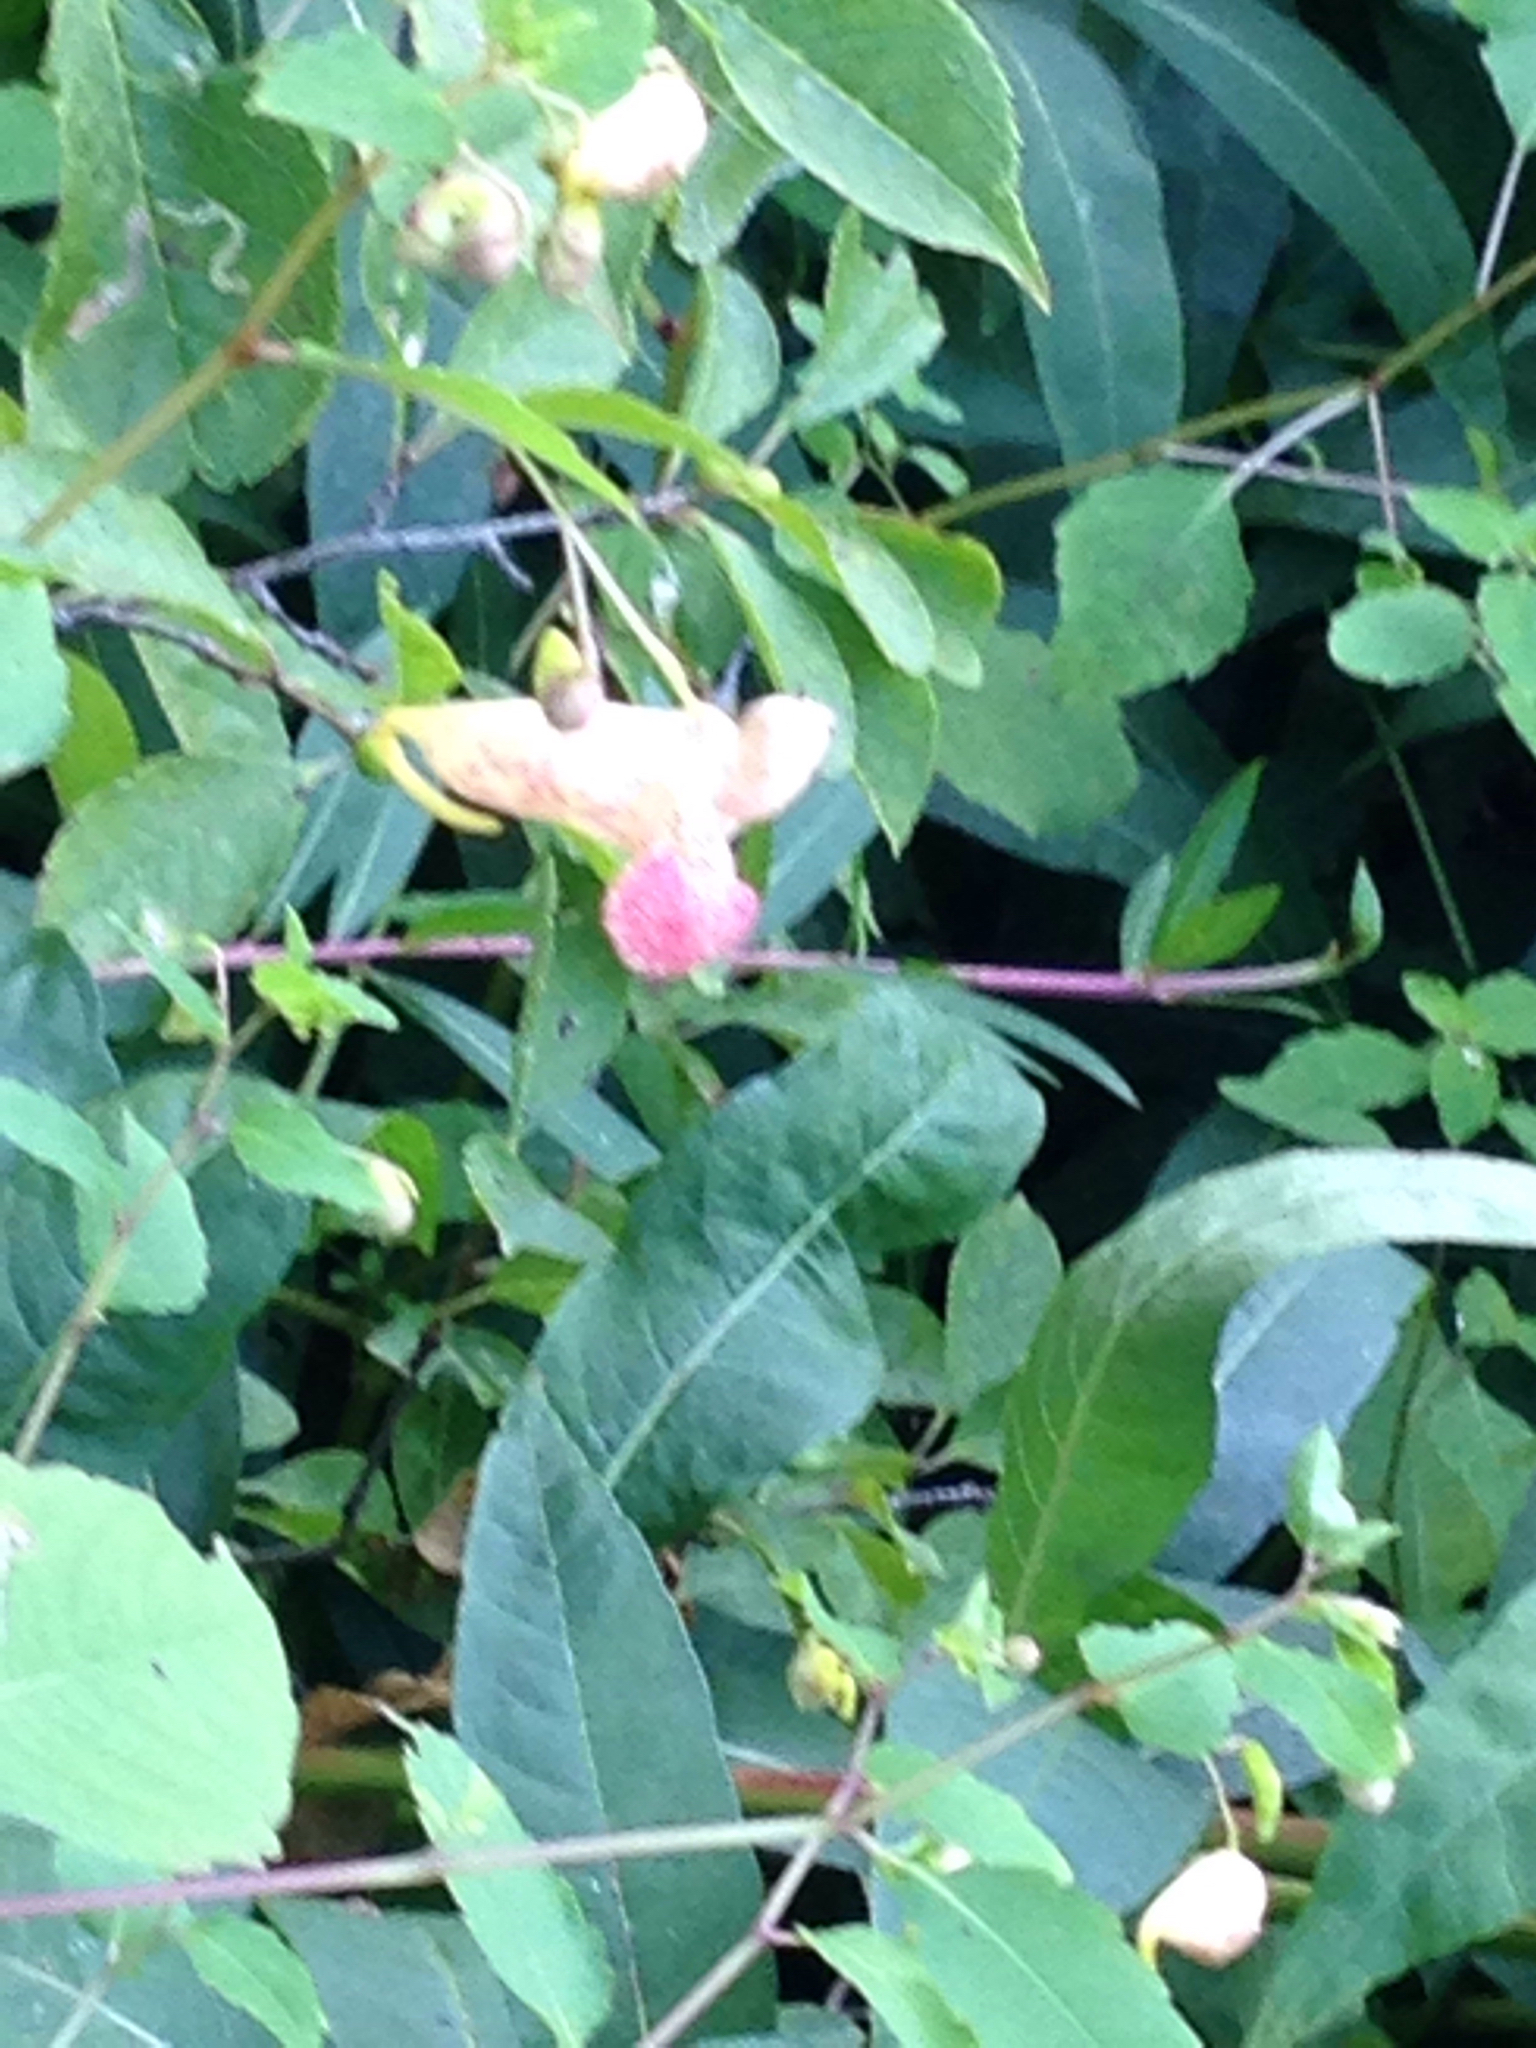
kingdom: Plantae
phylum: Tracheophyta
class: Magnoliopsida
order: Ericales
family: Balsaminaceae
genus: Impatiens
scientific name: Impatiens capensis
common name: Orange balsam
